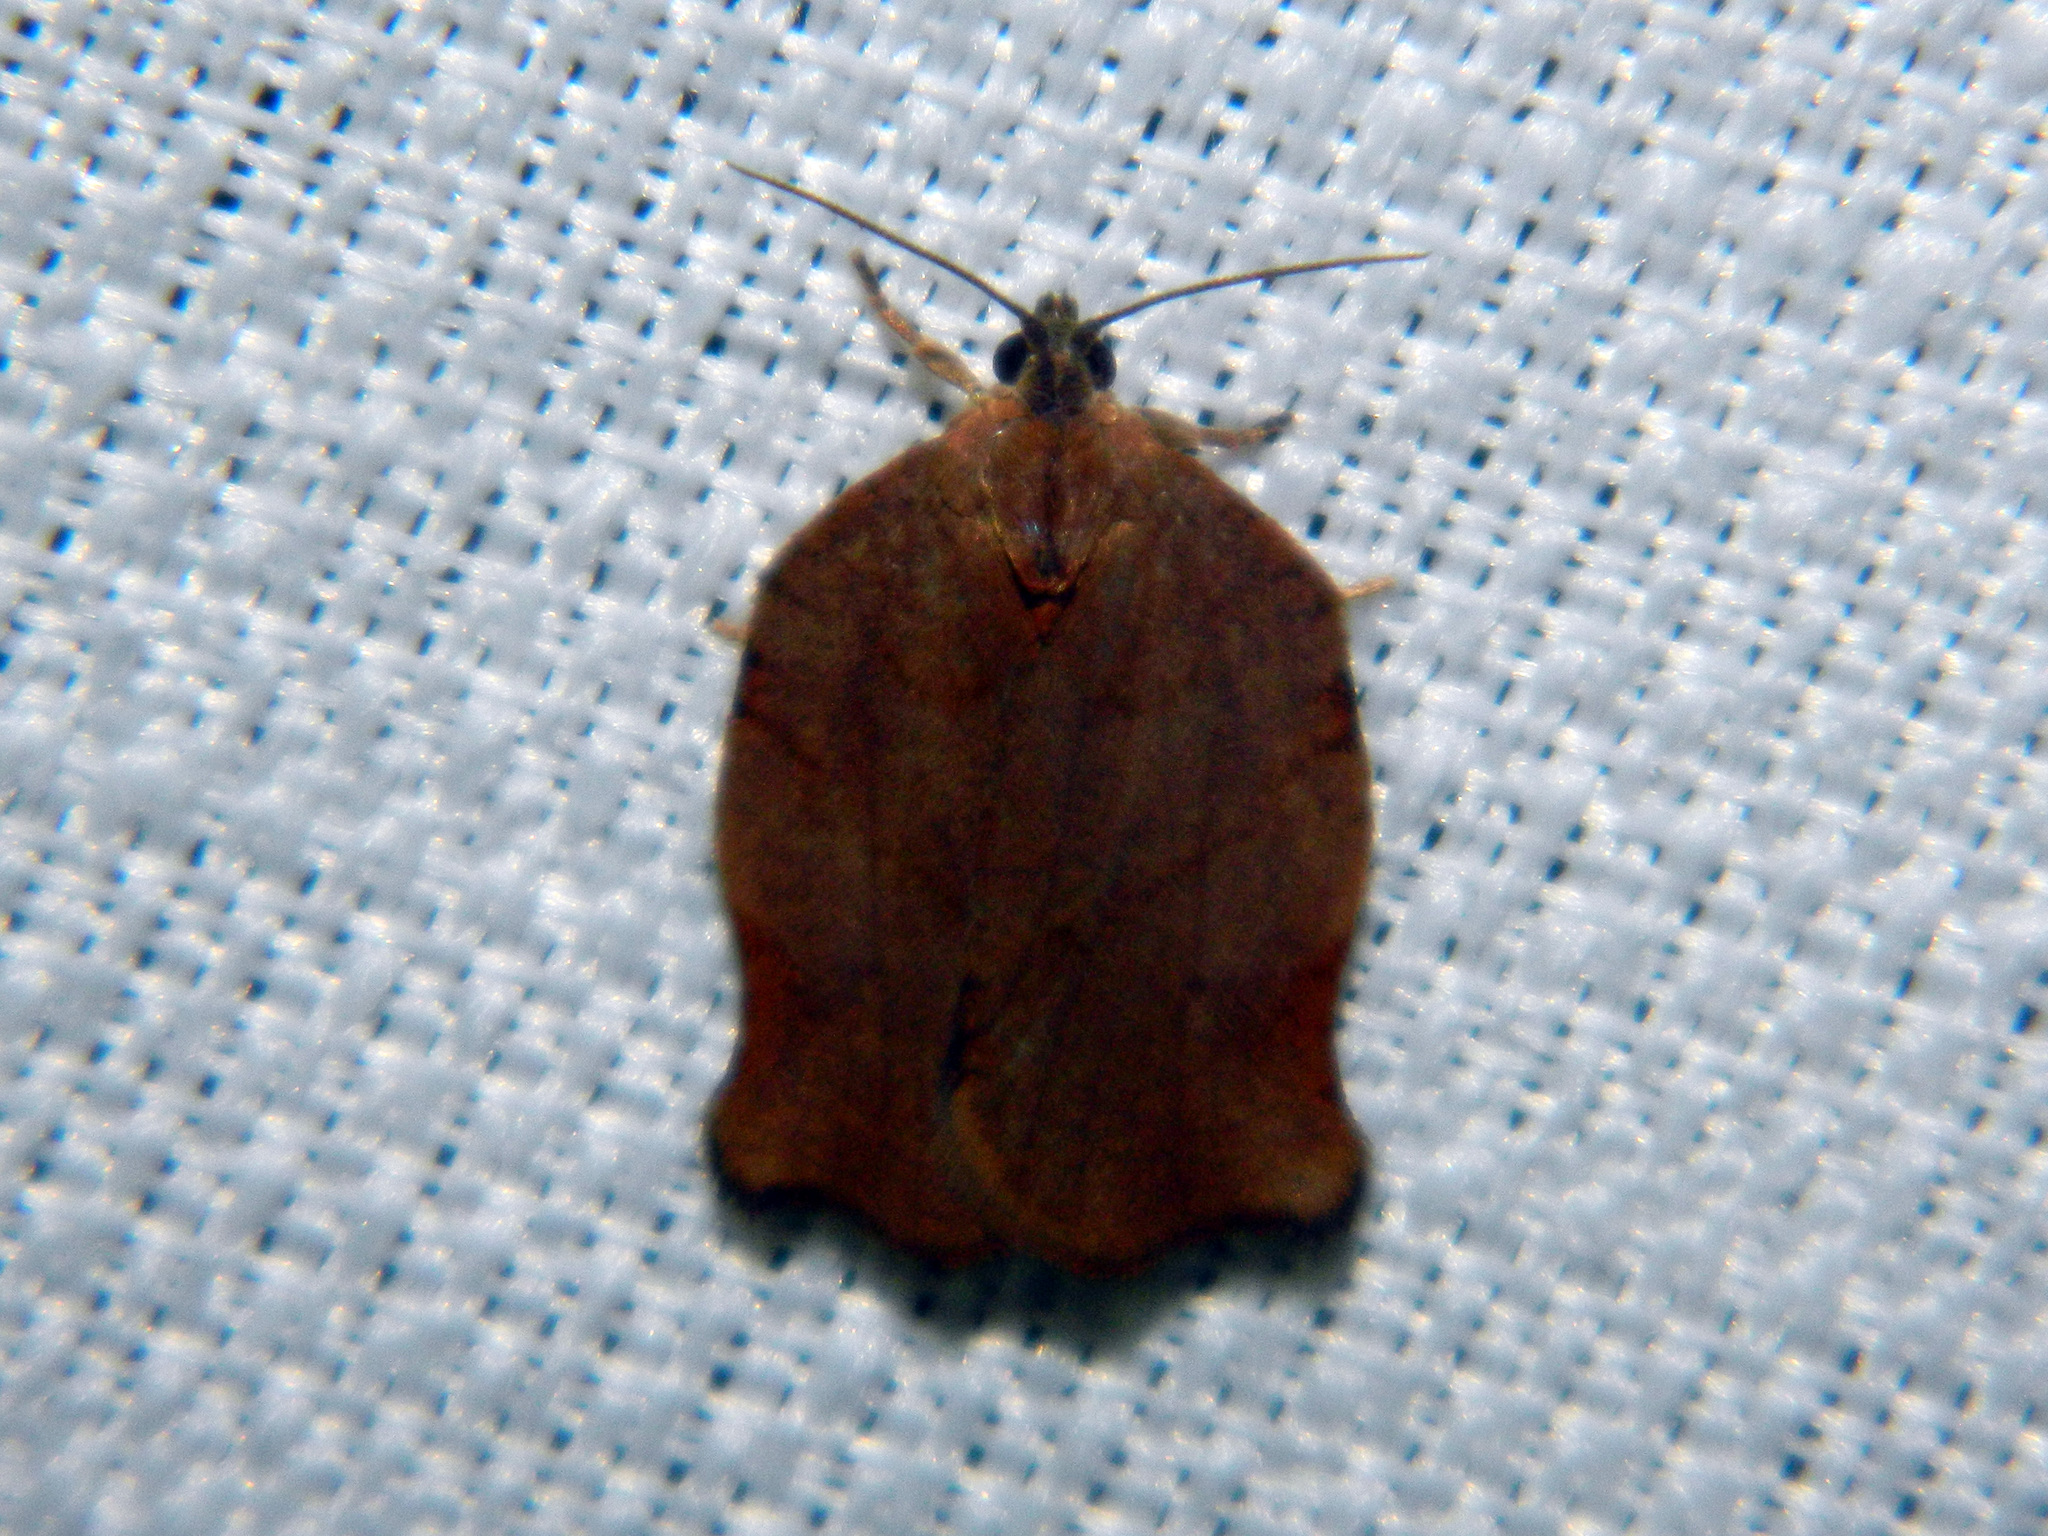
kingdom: Animalia
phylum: Arthropoda
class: Insecta
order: Lepidoptera
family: Tortricidae
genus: Archips
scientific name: Archips purpurana
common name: Omnivorous leafroller
